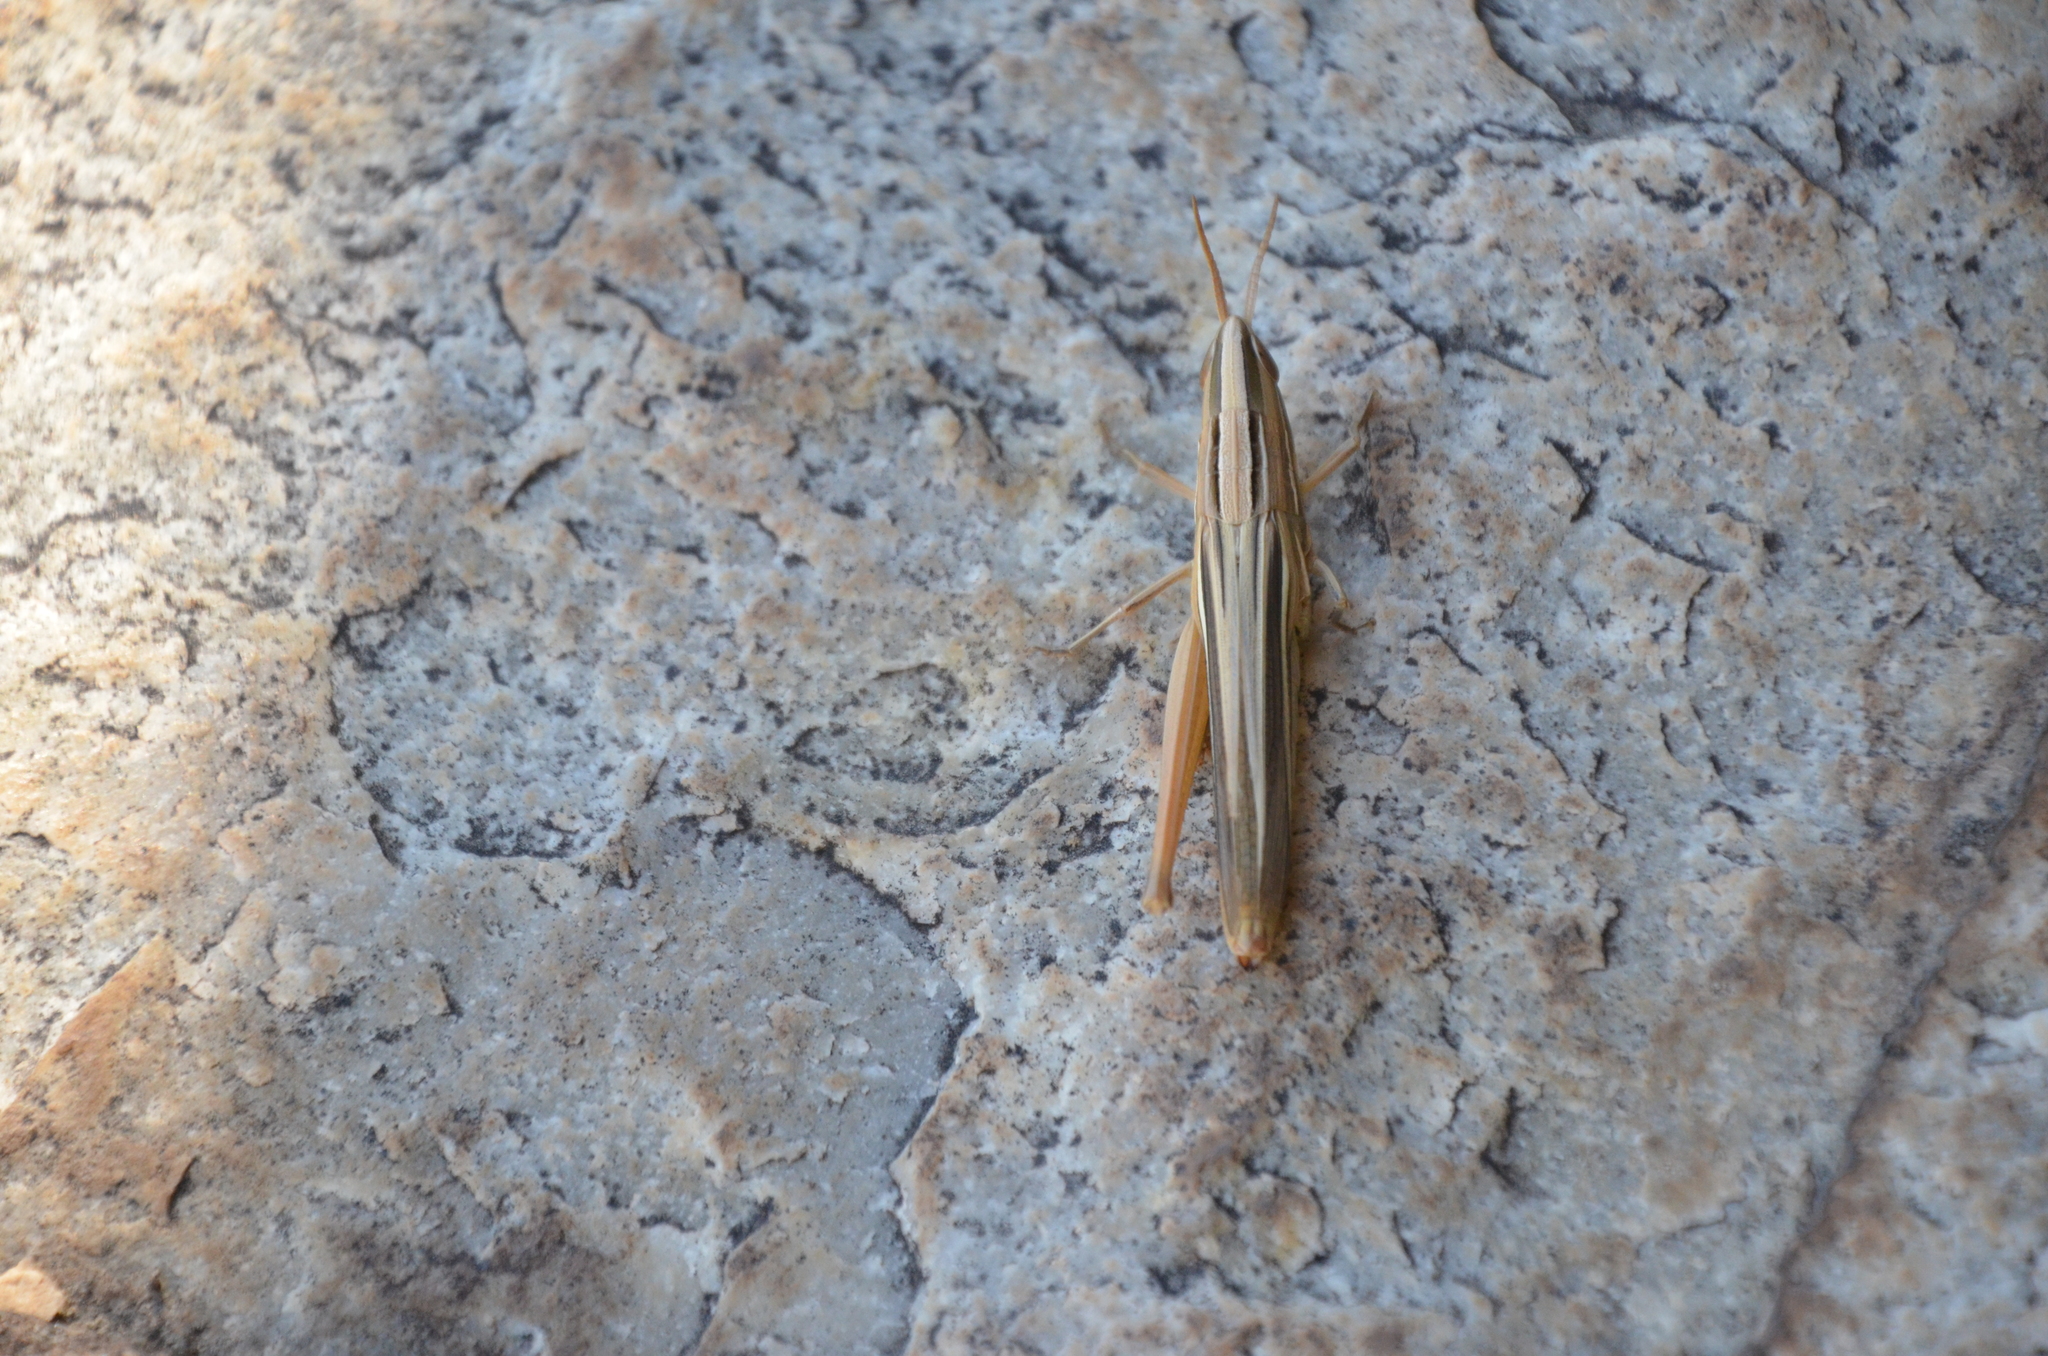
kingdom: Animalia
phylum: Arthropoda
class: Insecta
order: Orthoptera
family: Acrididae
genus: Sinipta
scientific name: Sinipta dalmani
